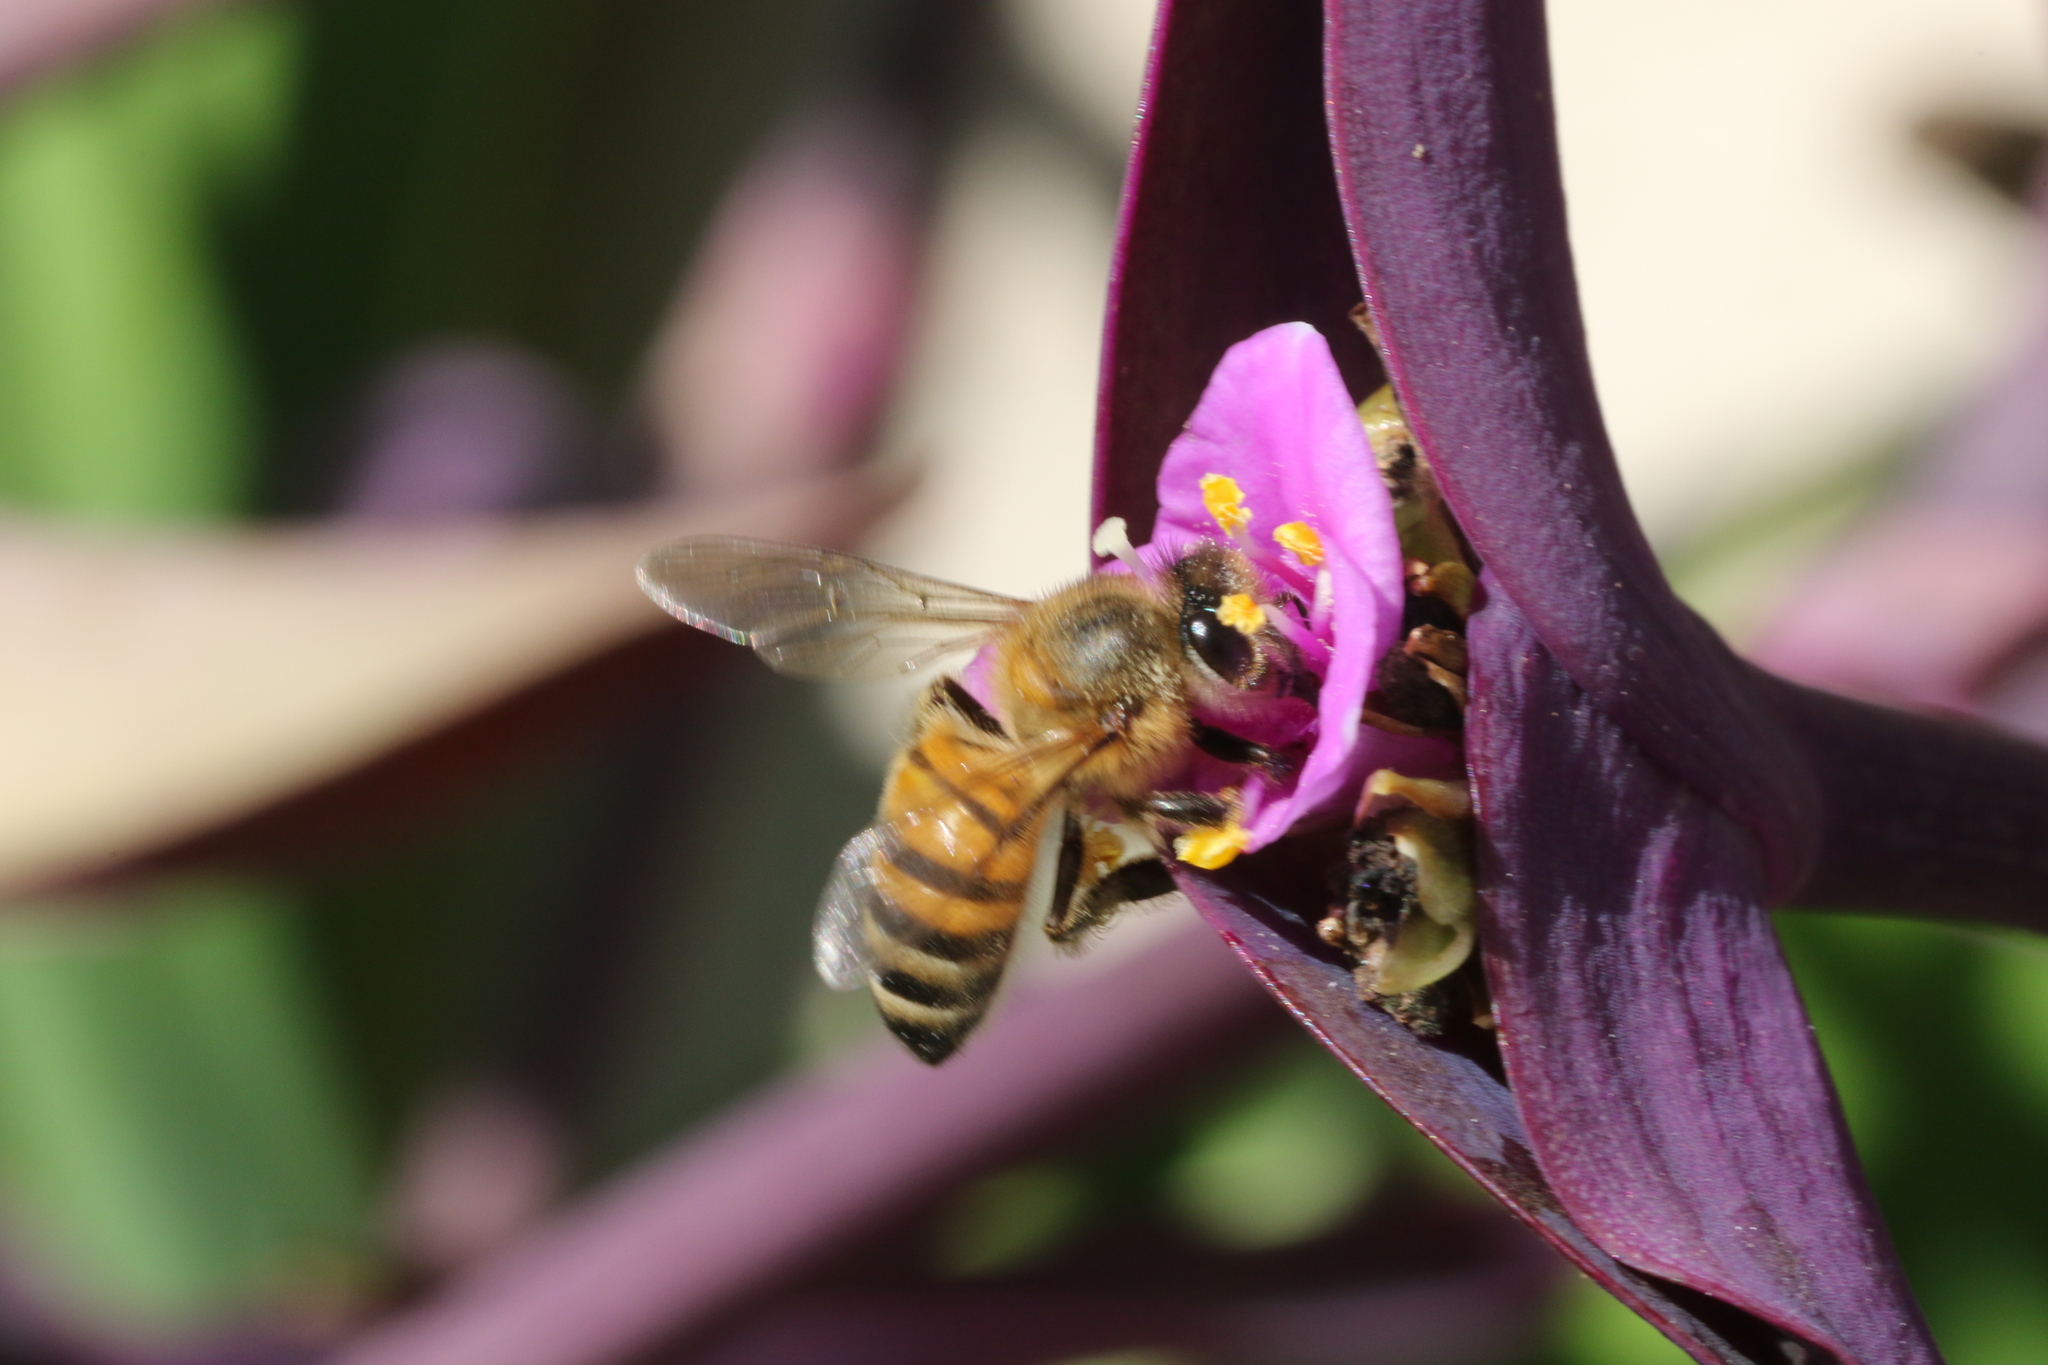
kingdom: Animalia
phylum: Arthropoda
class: Insecta
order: Hymenoptera
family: Apidae
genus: Apis
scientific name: Apis mellifera
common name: Honey bee
